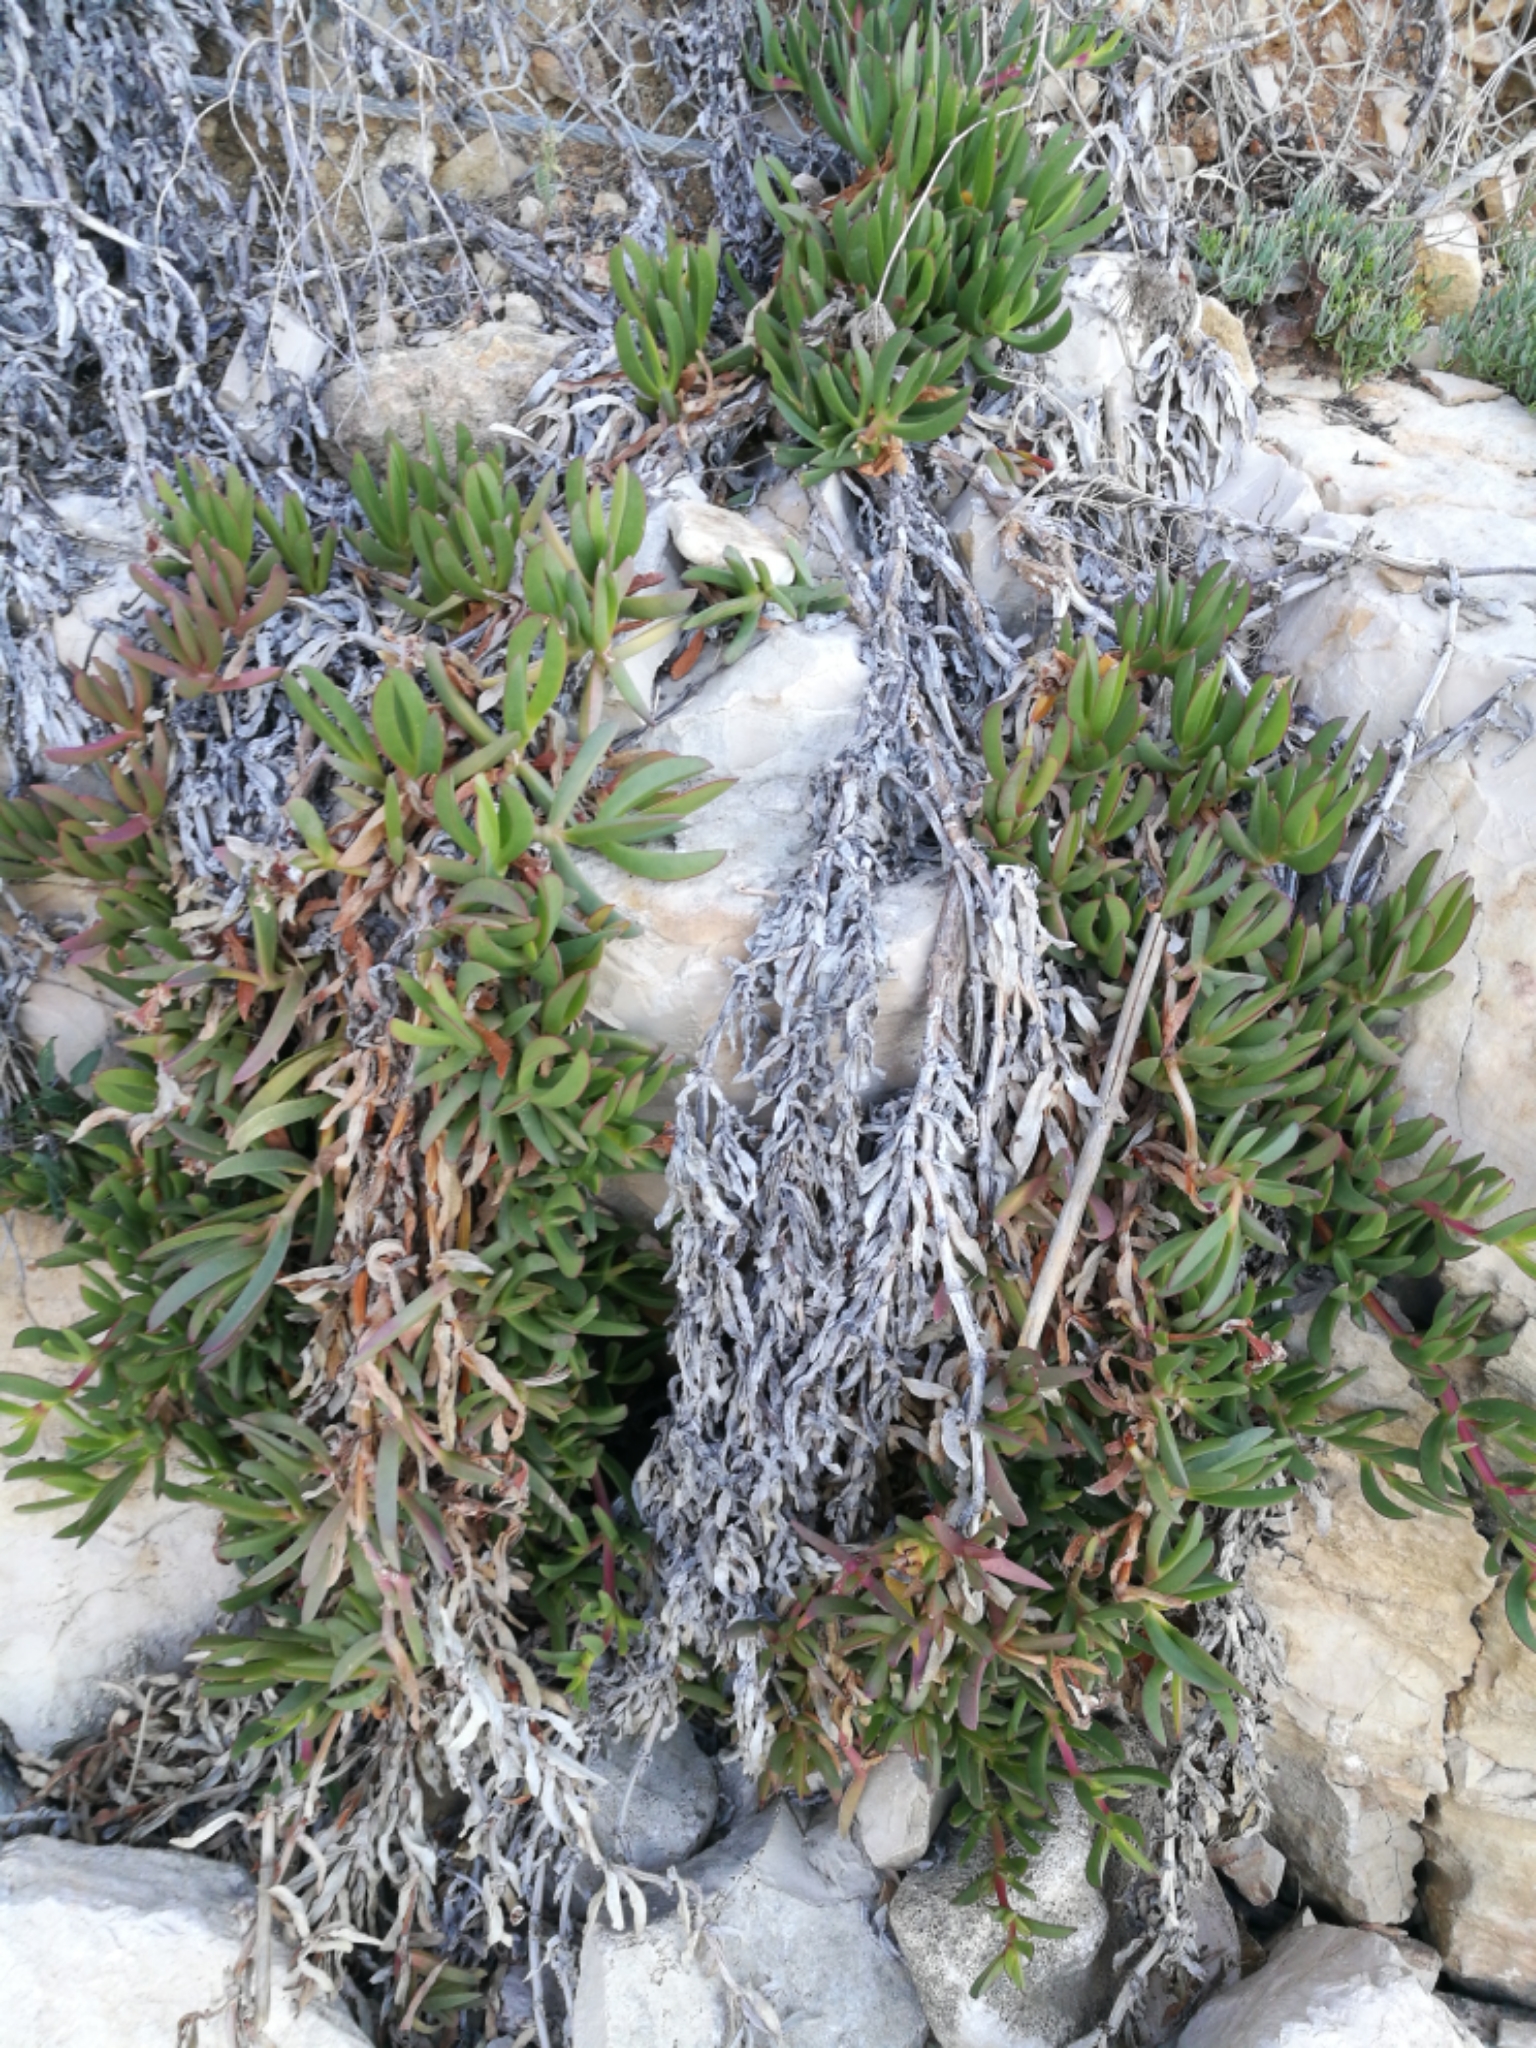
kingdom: Plantae
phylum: Tracheophyta
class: Magnoliopsida
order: Caryophyllales
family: Aizoaceae
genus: Carpobrotus
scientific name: Carpobrotus edulis
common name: Hottentot-fig
